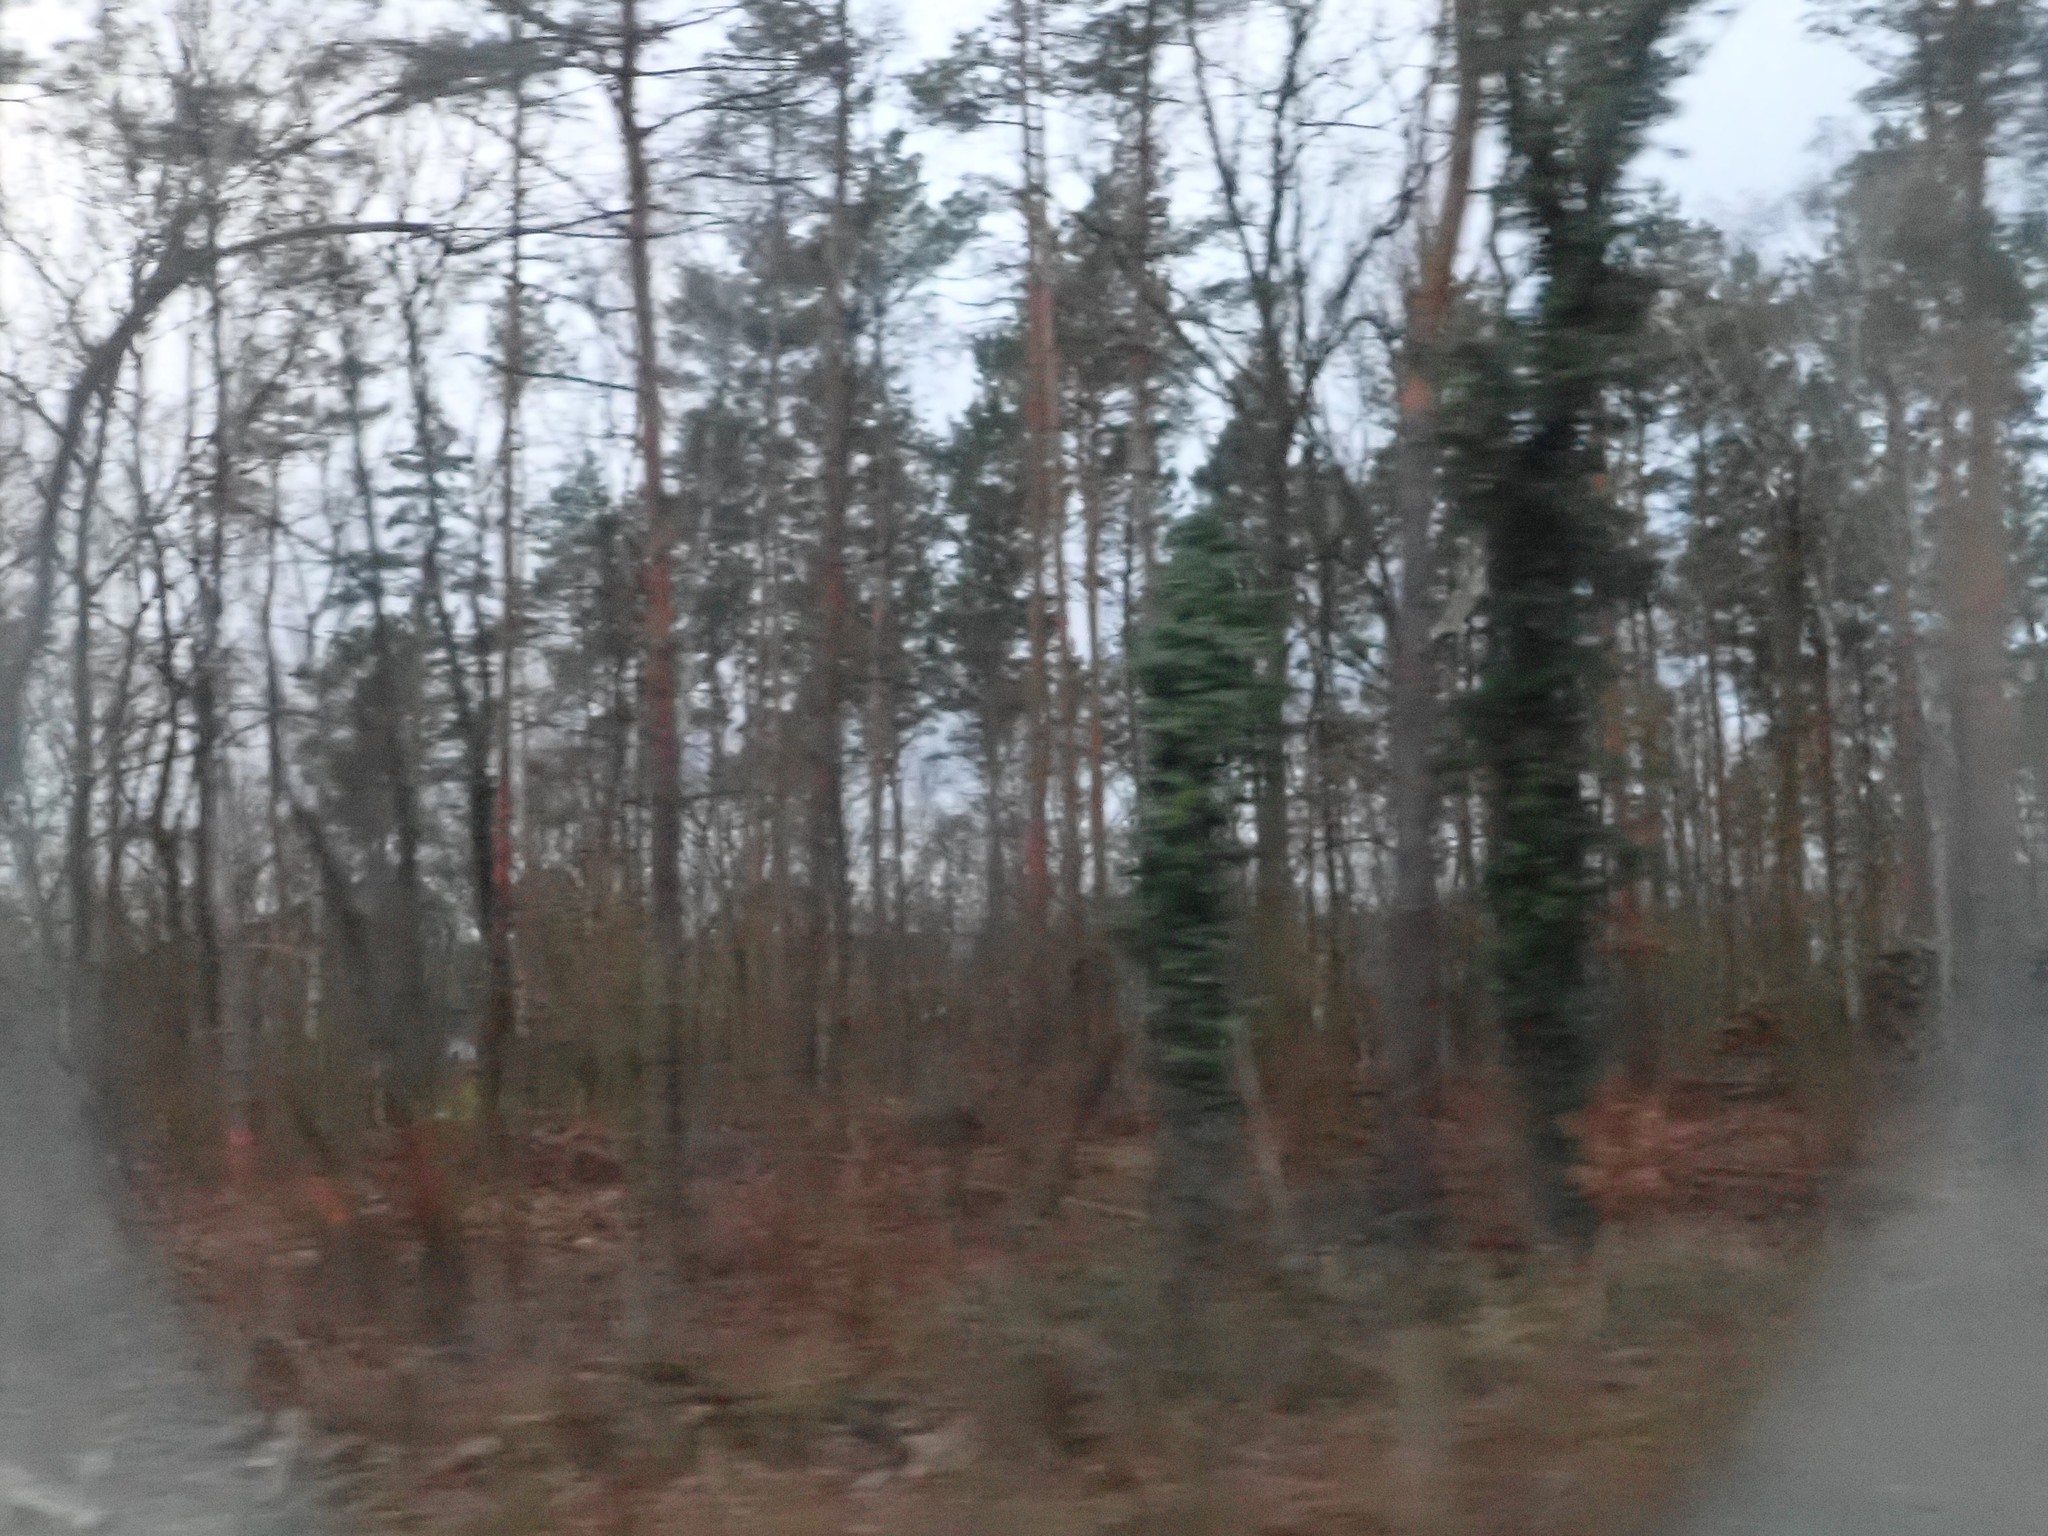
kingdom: Plantae
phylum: Tracheophyta
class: Magnoliopsida
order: Apiales
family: Araliaceae
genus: Hedera
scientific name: Hedera helix
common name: Ivy
